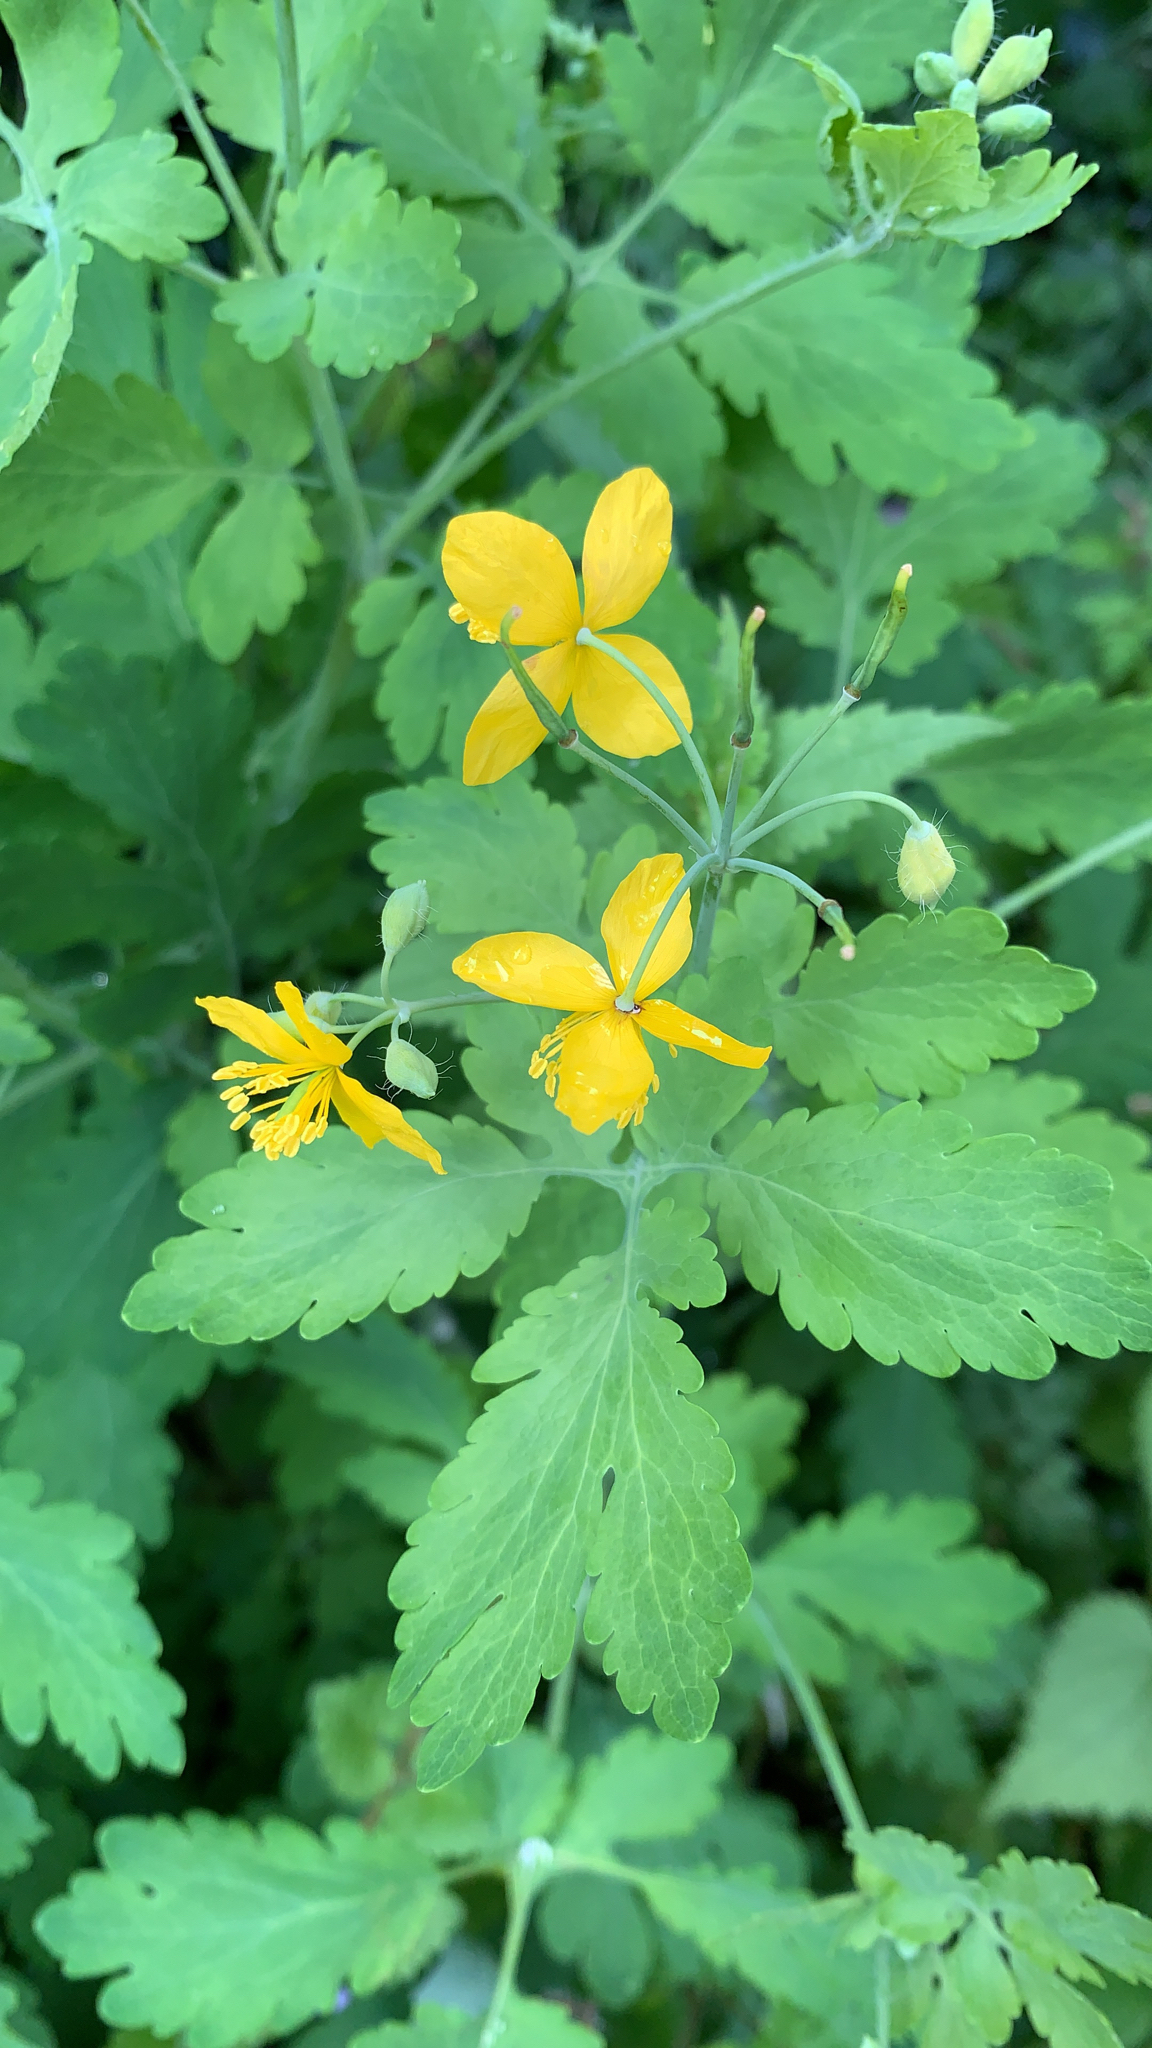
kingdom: Plantae
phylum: Tracheophyta
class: Magnoliopsida
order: Ranunculales
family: Papaveraceae
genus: Chelidonium
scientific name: Chelidonium majus
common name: Greater celandine
